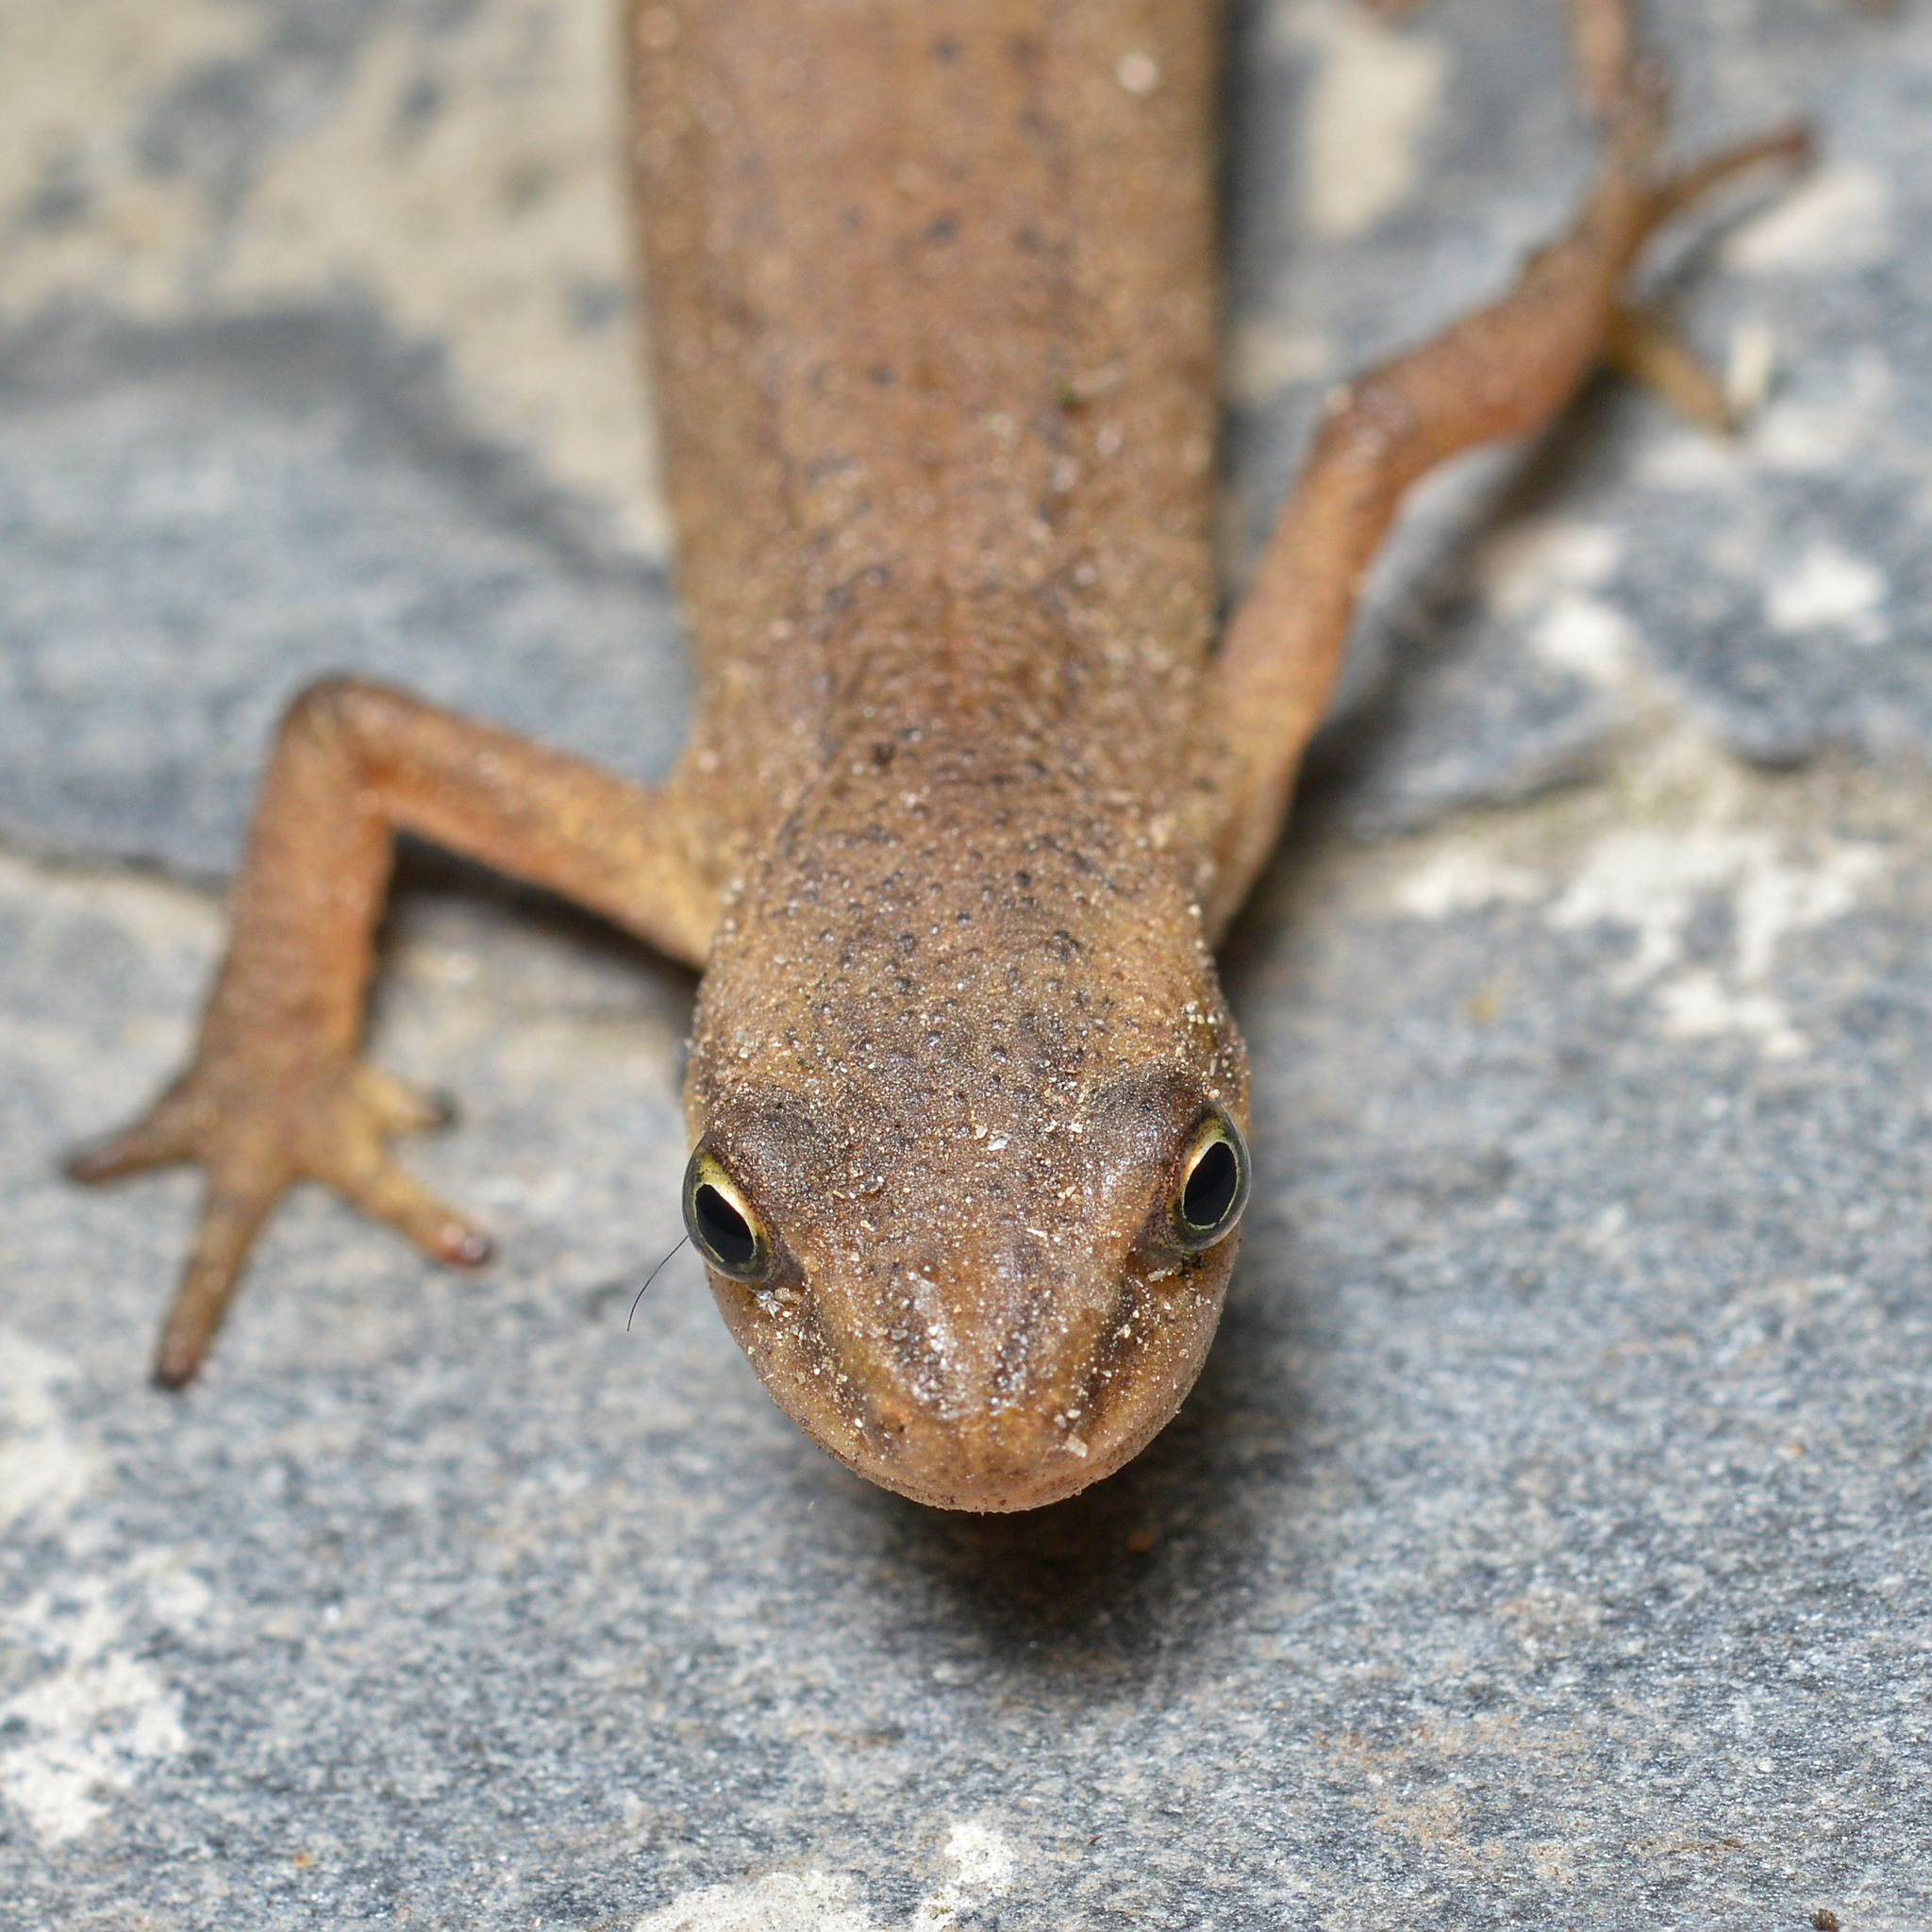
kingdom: Animalia
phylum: Chordata
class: Amphibia
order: Caudata
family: Salamandridae
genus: Lissotriton
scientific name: Lissotriton vulgaris
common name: Smooth newt
